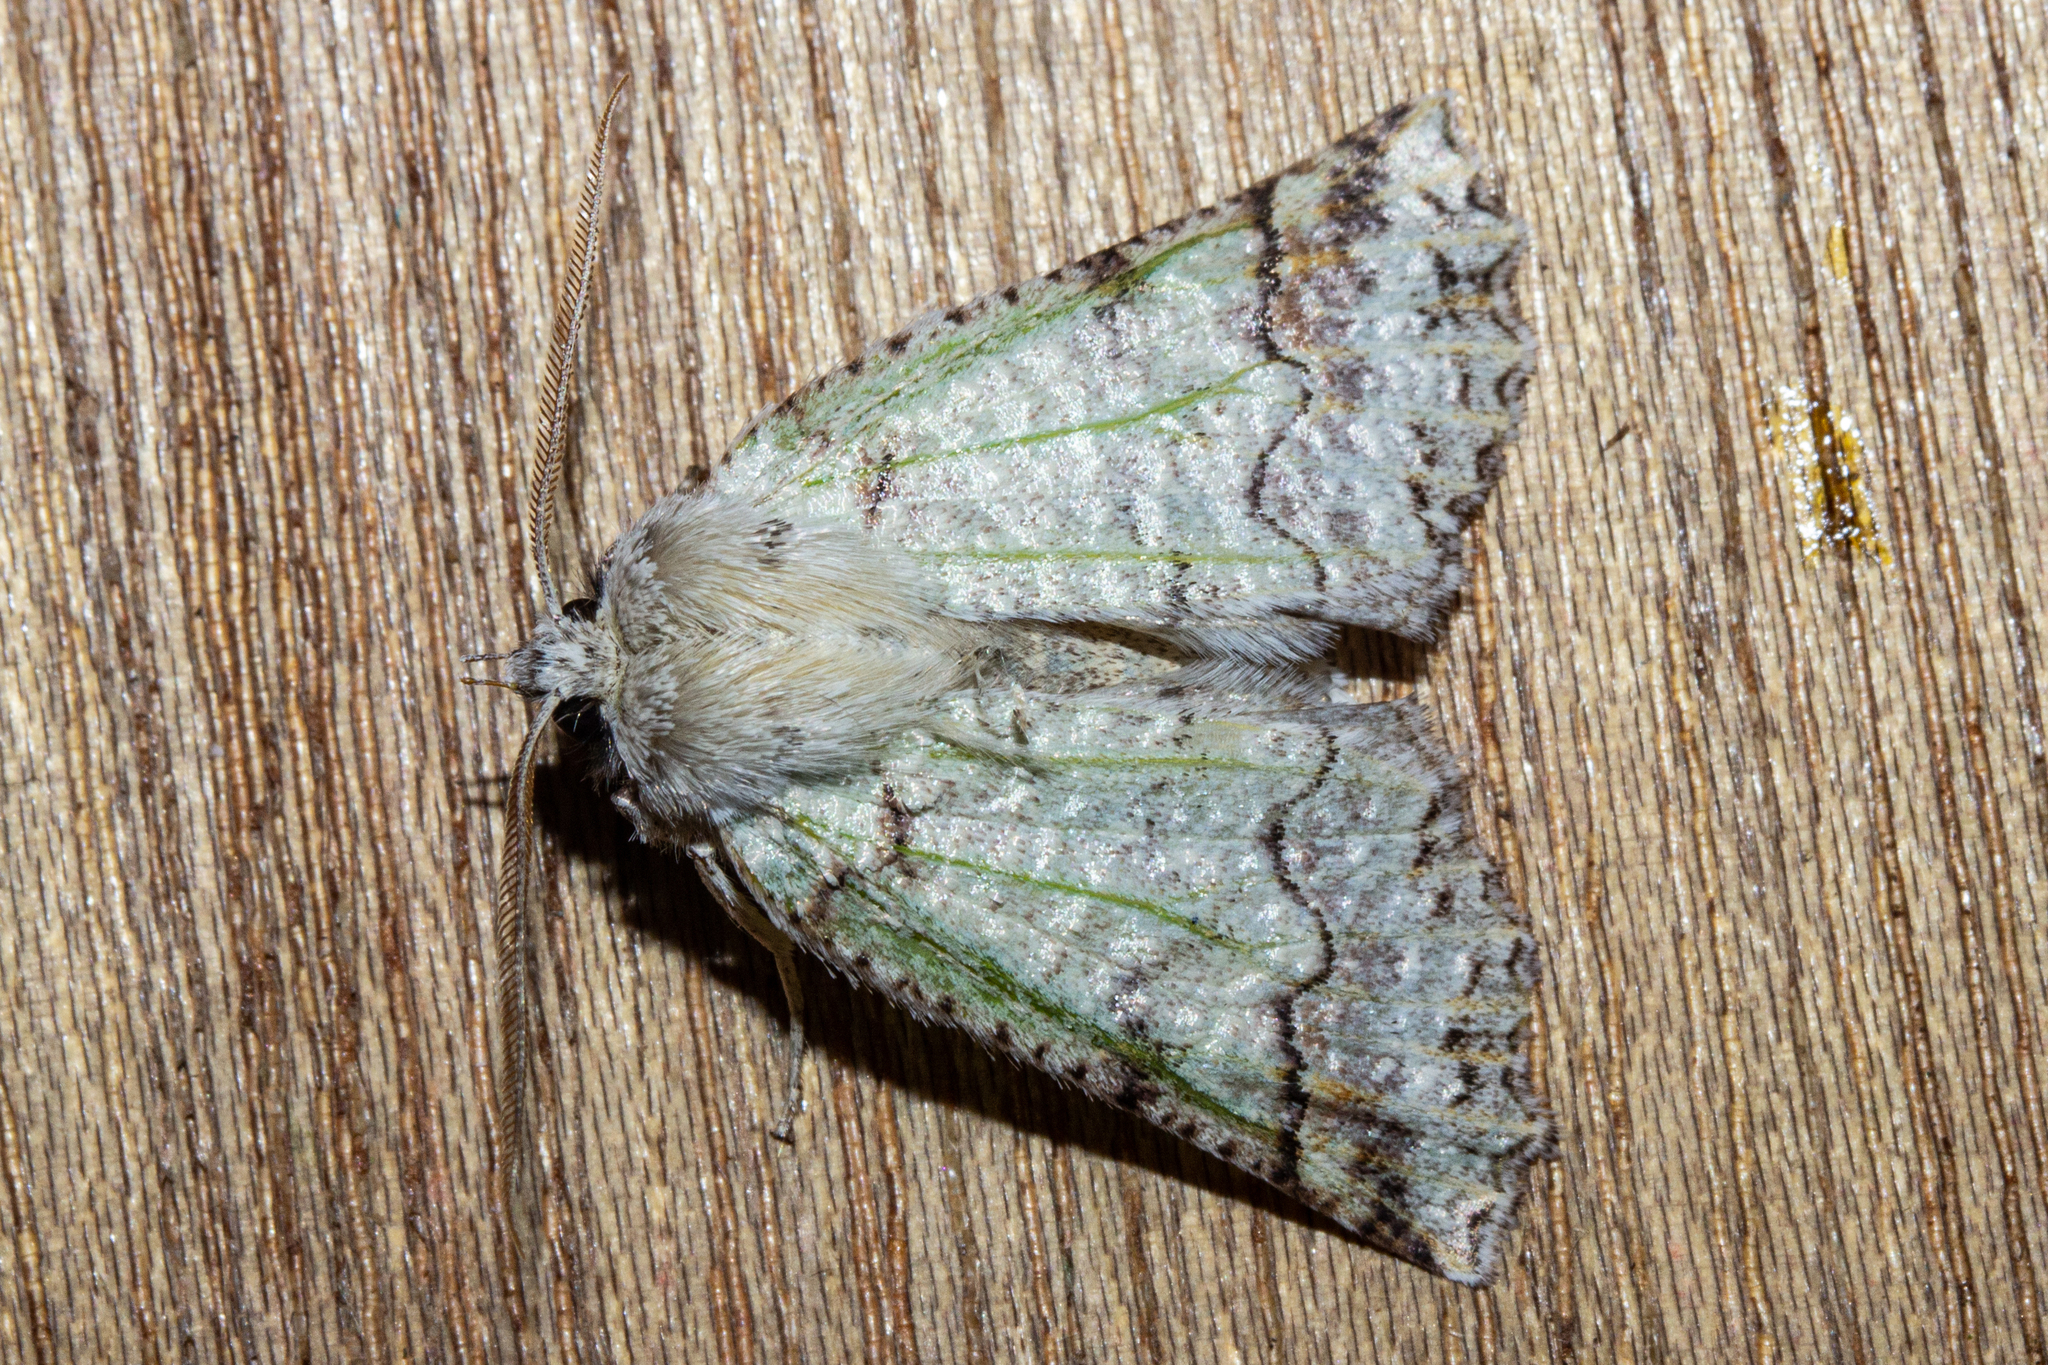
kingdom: Animalia
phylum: Arthropoda
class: Insecta
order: Lepidoptera
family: Geometridae
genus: Declana
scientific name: Declana floccosa
